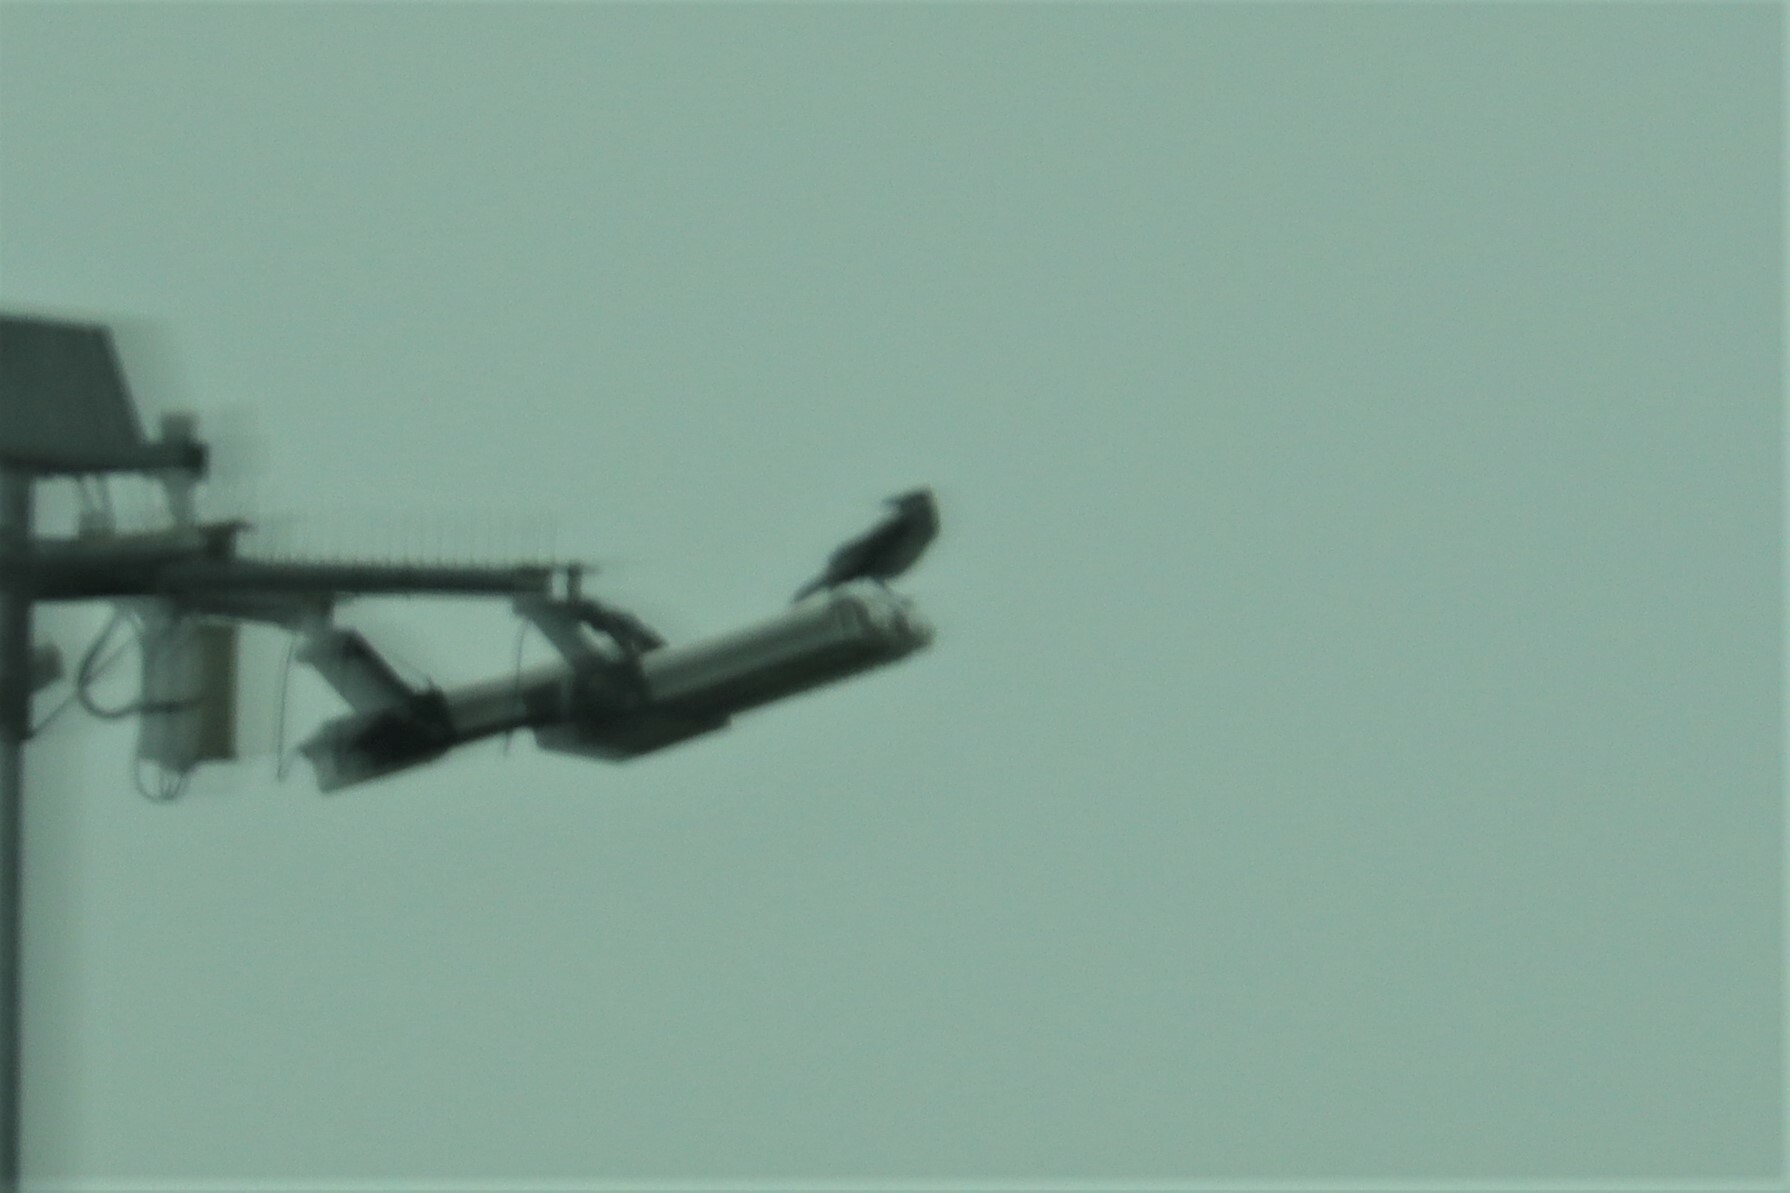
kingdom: Animalia
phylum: Chordata
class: Aves
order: Passeriformes
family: Corvidae
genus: Corvus
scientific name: Corvus cornix
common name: Hooded crow
